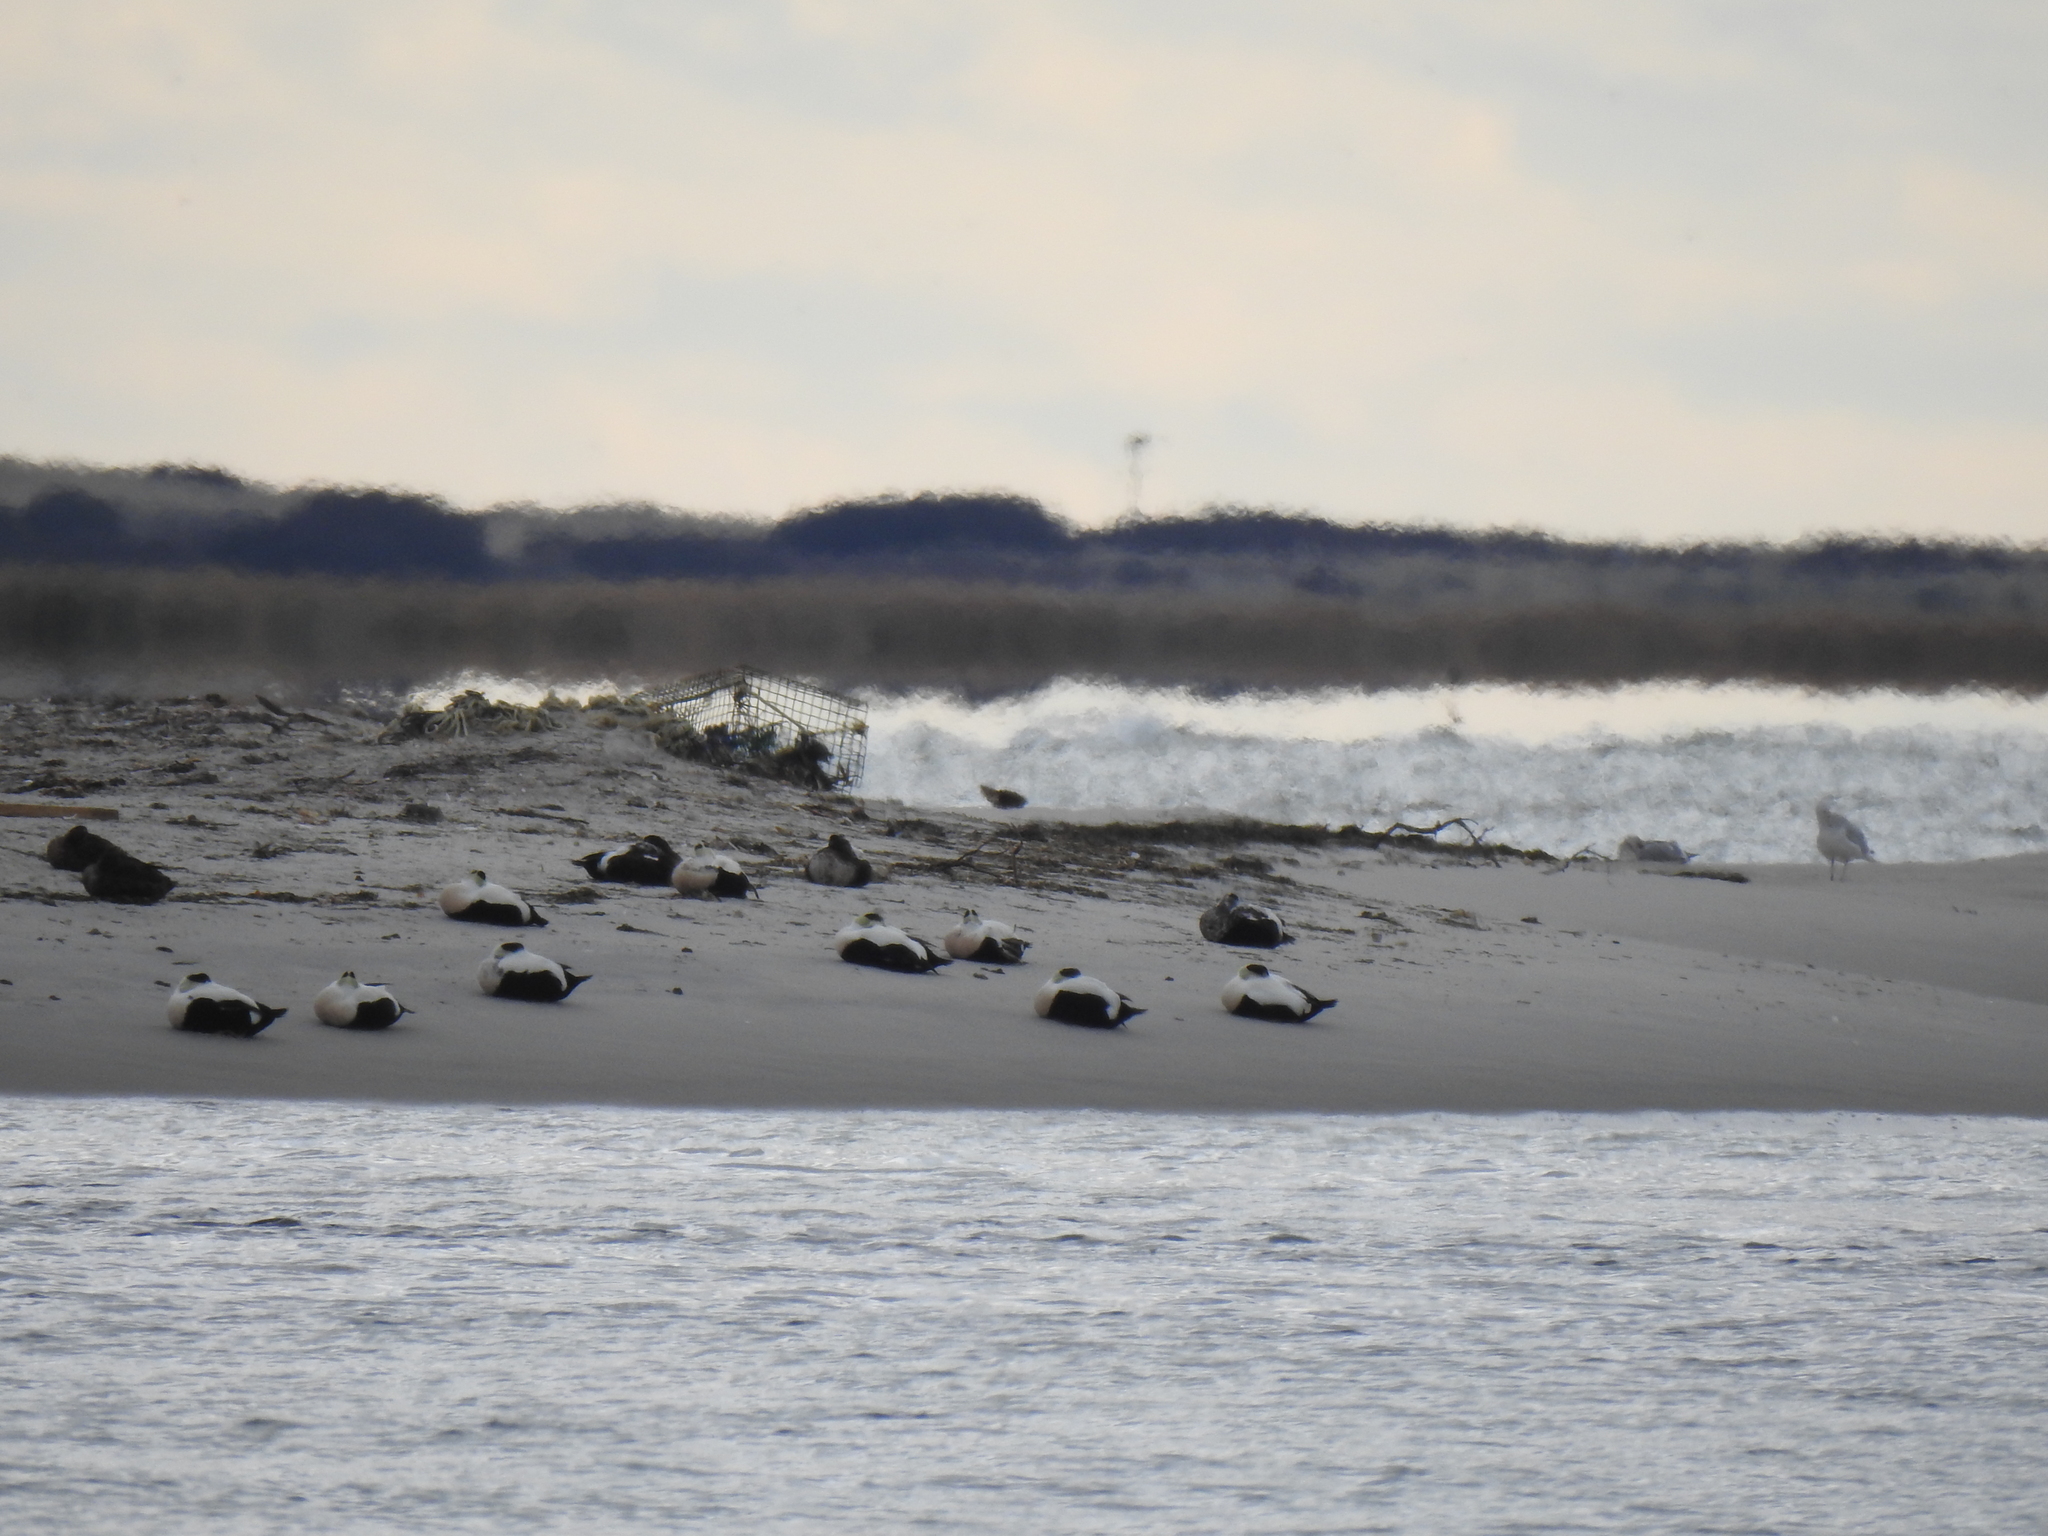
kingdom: Animalia
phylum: Chordata
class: Aves
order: Anseriformes
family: Anatidae
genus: Somateria
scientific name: Somateria mollissima
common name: Common eider
